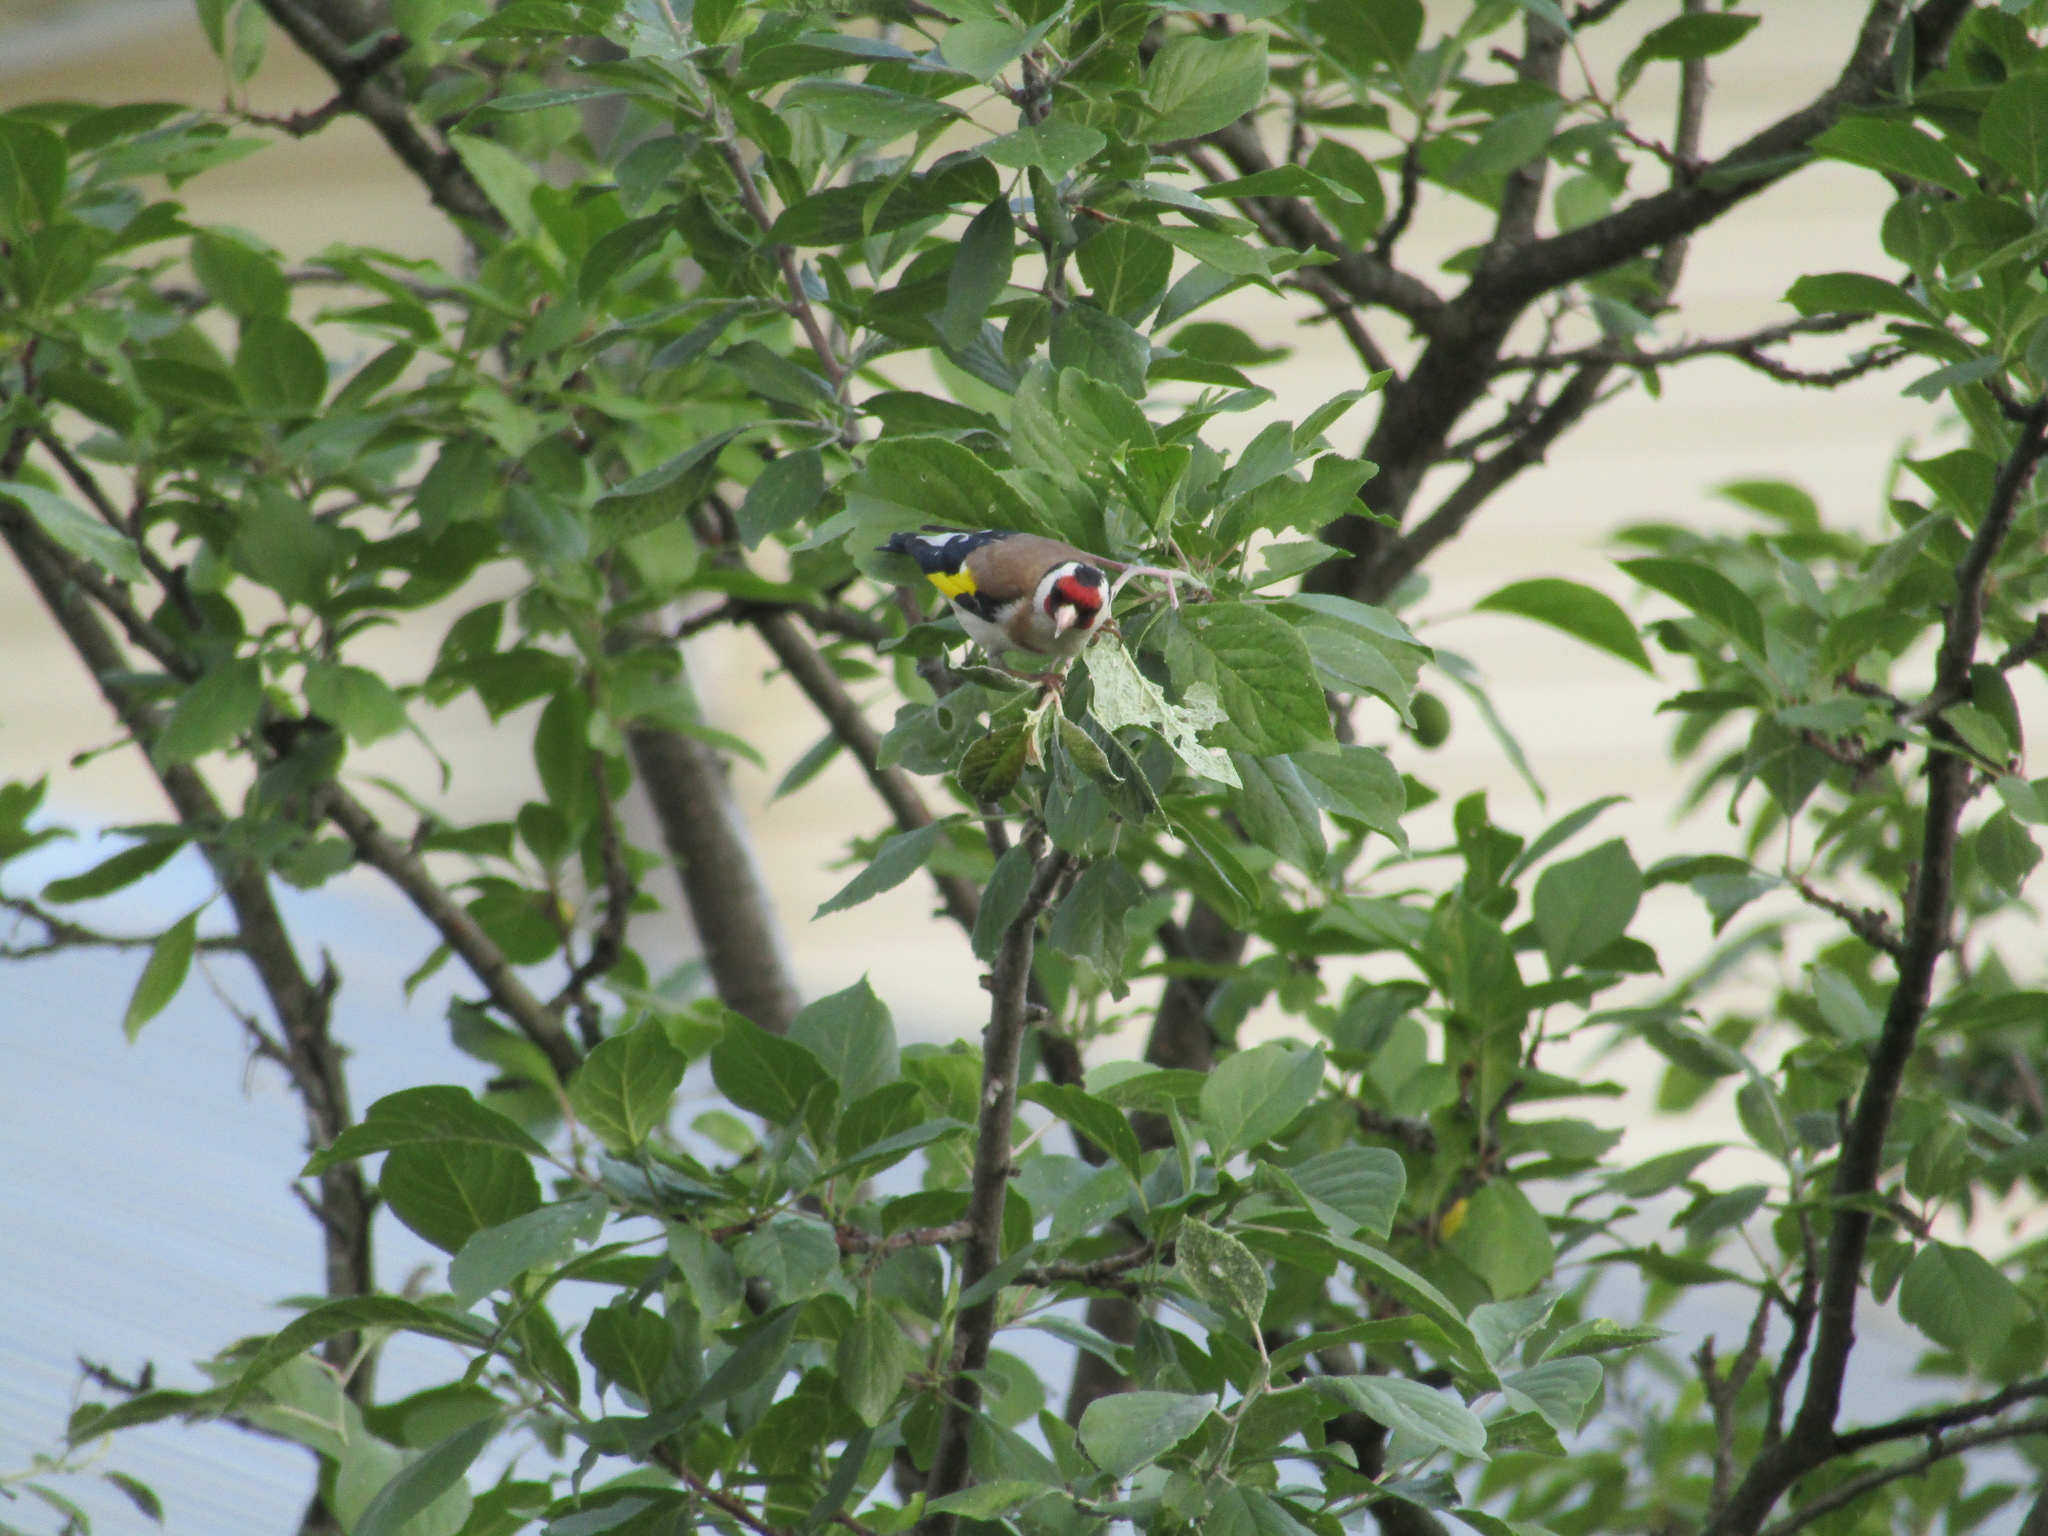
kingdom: Animalia
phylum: Chordata
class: Aves
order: Passeriformes
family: Fringillidae
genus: Carduelis
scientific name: Carduelis carduelis
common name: European goldfinch
